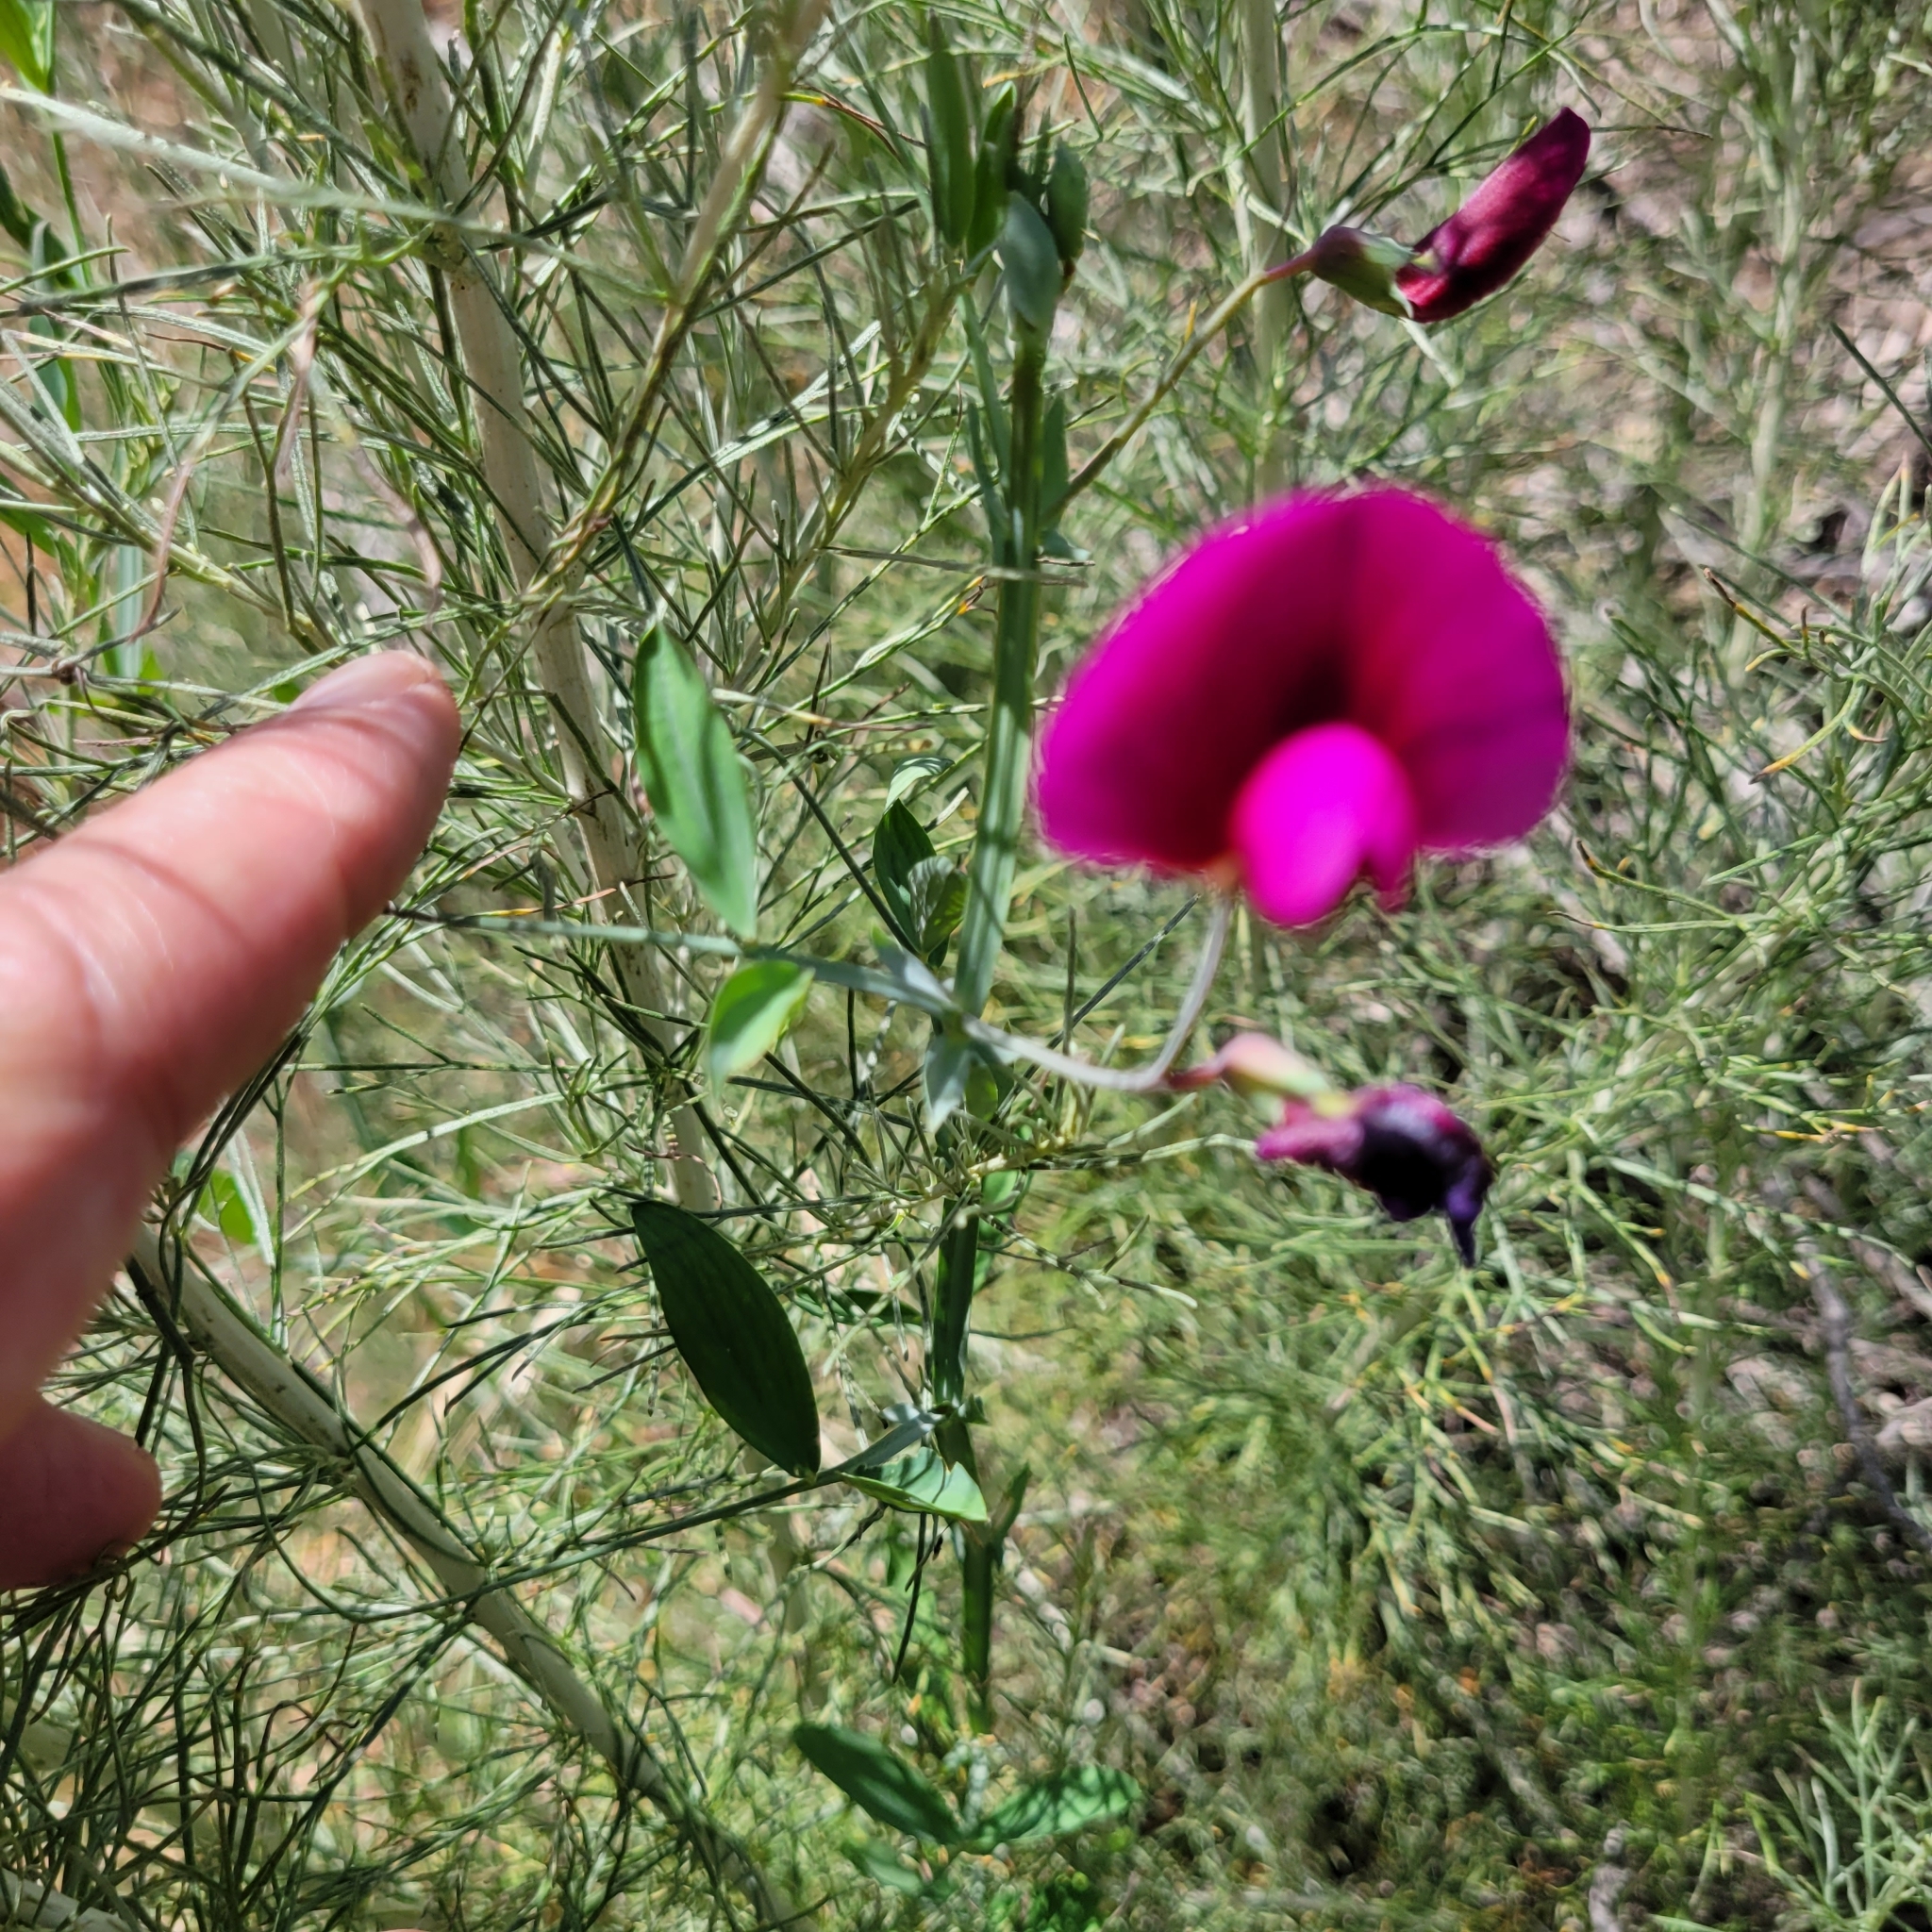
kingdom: Plantae
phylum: Tracheophyta
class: Magnoliopsida
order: Fabales
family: Fabaceae
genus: Lathyrus
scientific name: Lathyrus tingitanus
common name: Tangier pea
